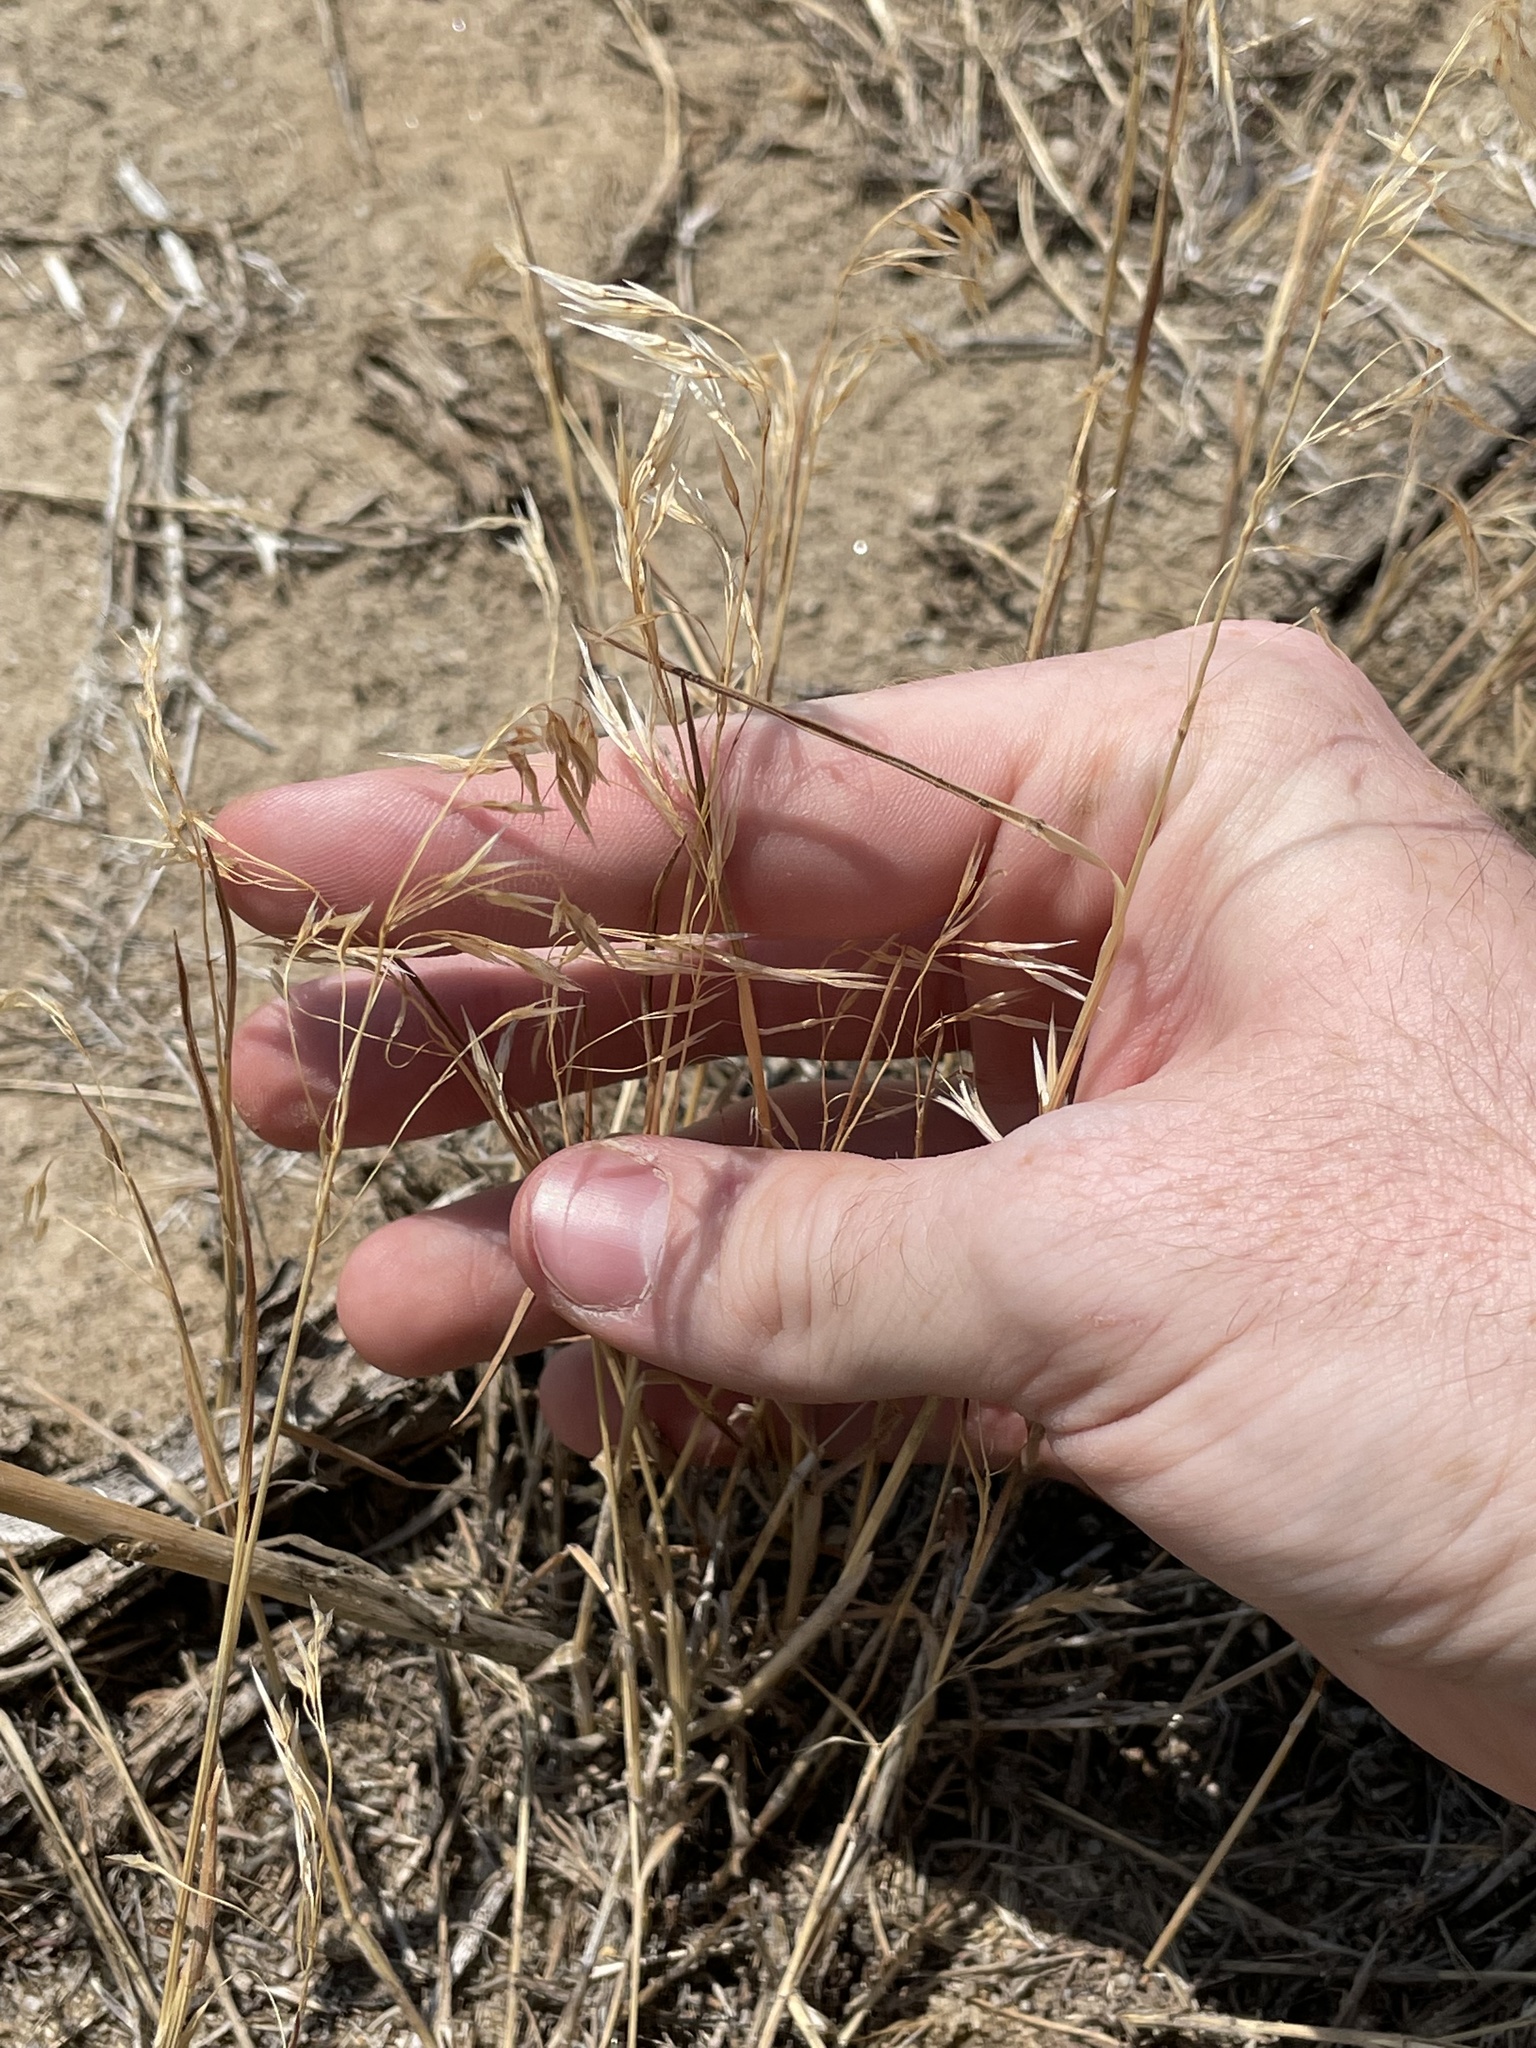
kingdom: Plantae
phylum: Tracheophyta
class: Liliopsida
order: Poales
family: Poaceae
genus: Bromus
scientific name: Bromus tectorum
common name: Cheatgrass
